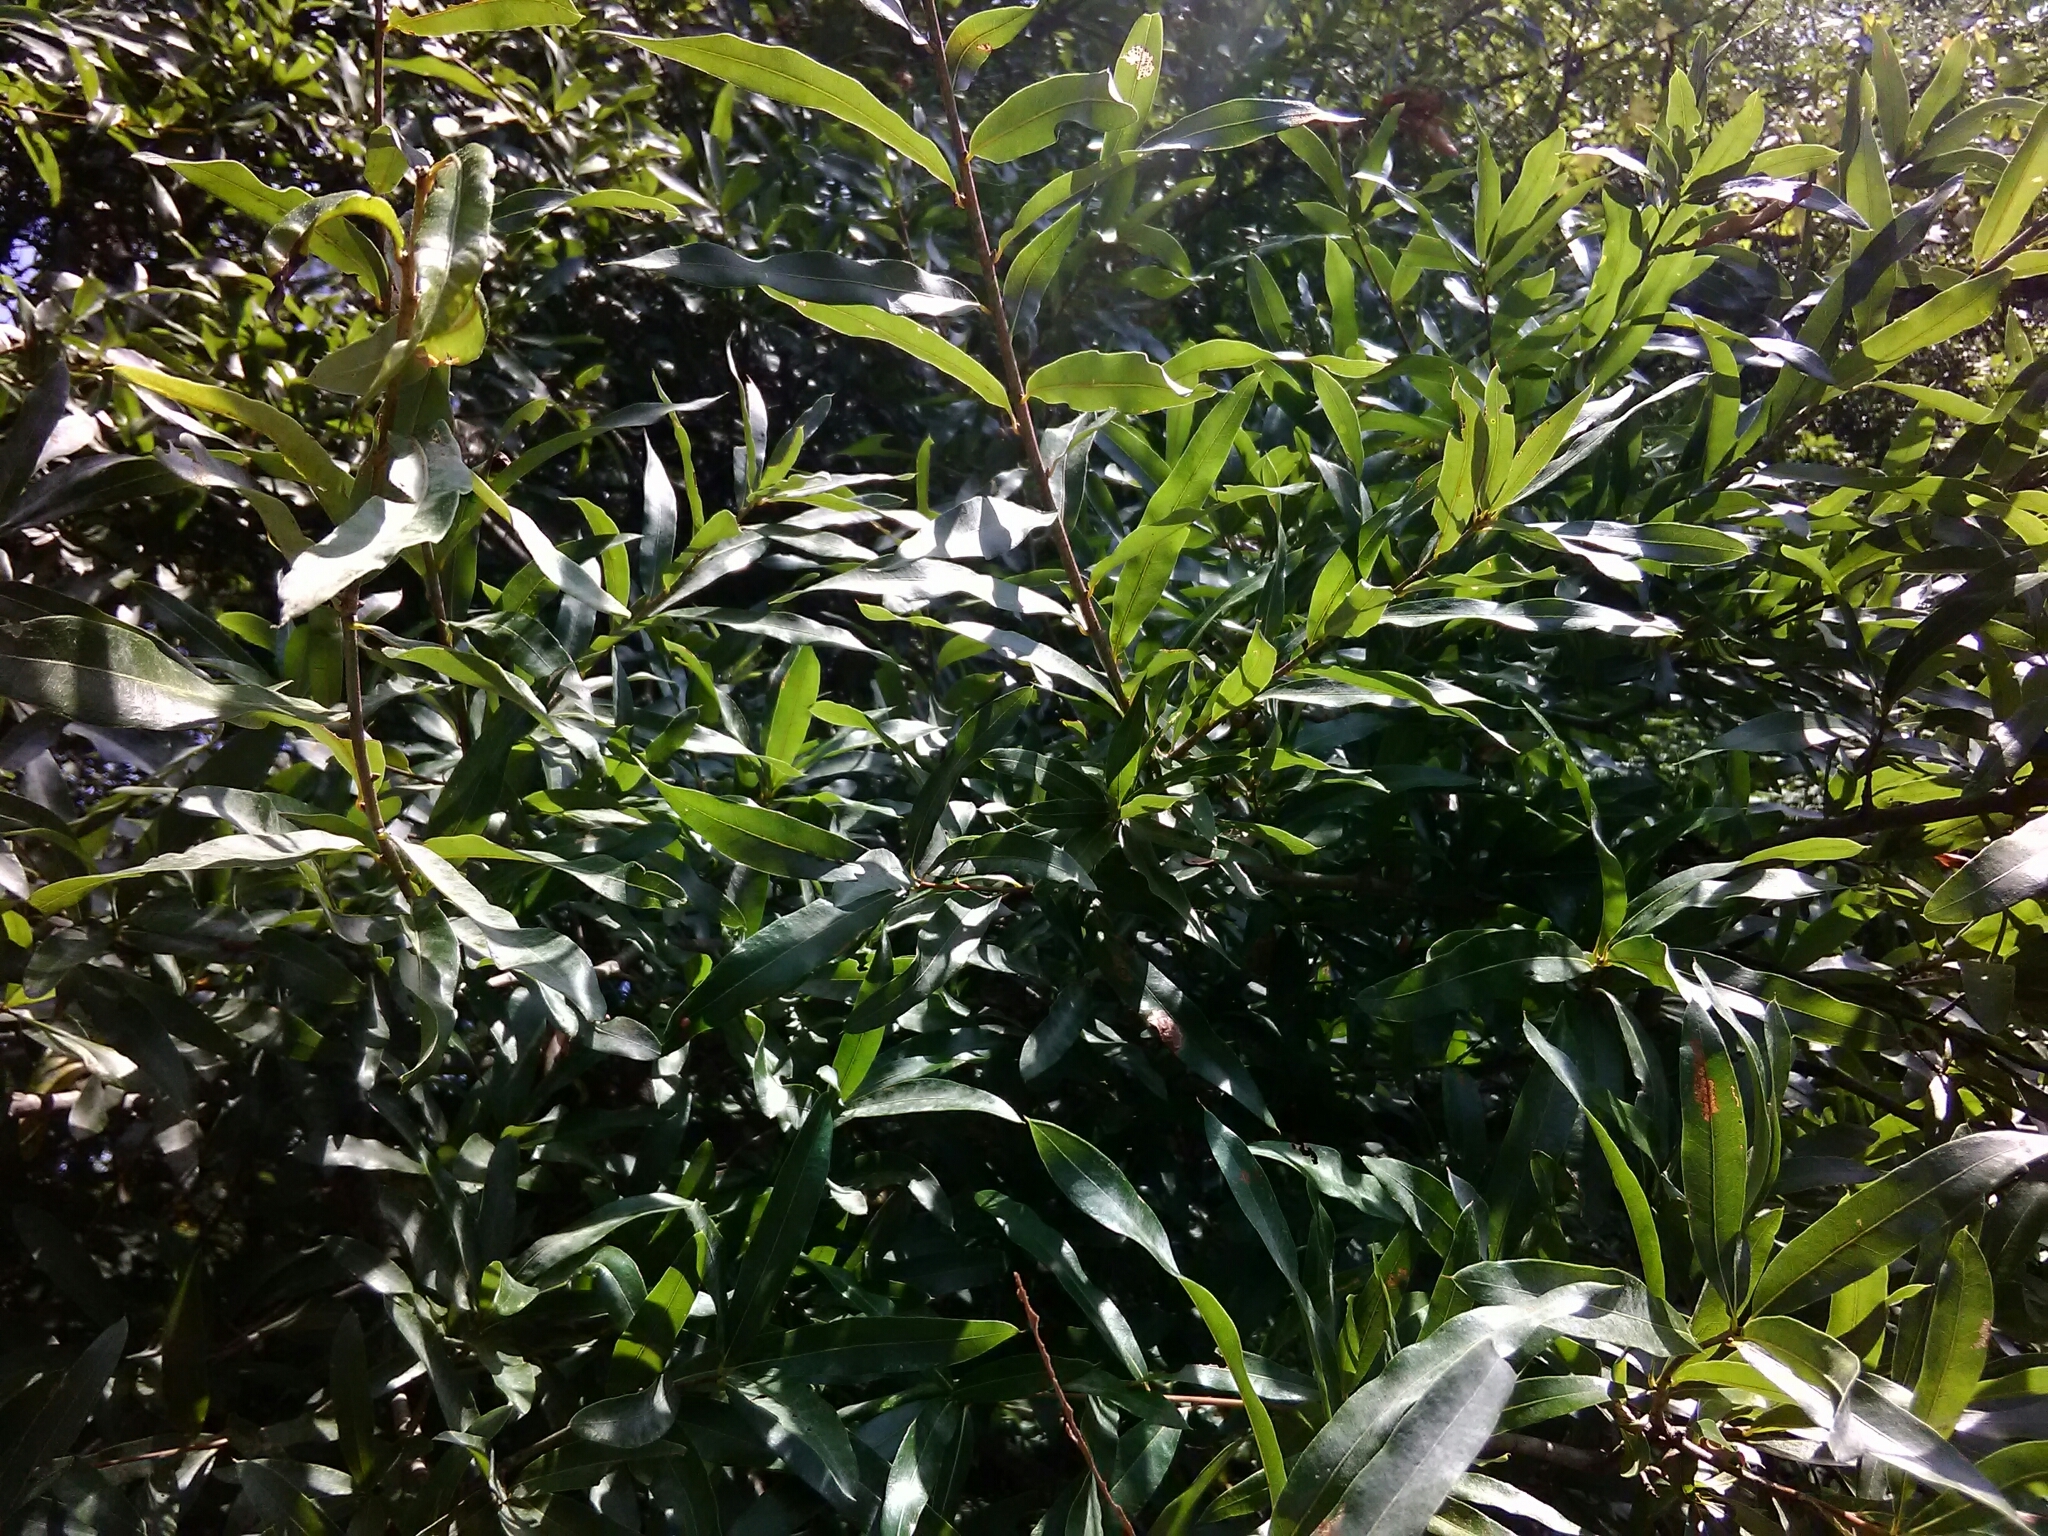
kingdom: Plantae
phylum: Tracheophyta
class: Magnoliopsida
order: Fagales
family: Fagaceae
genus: Quercus
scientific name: Quercus phellos
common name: Willow oak
